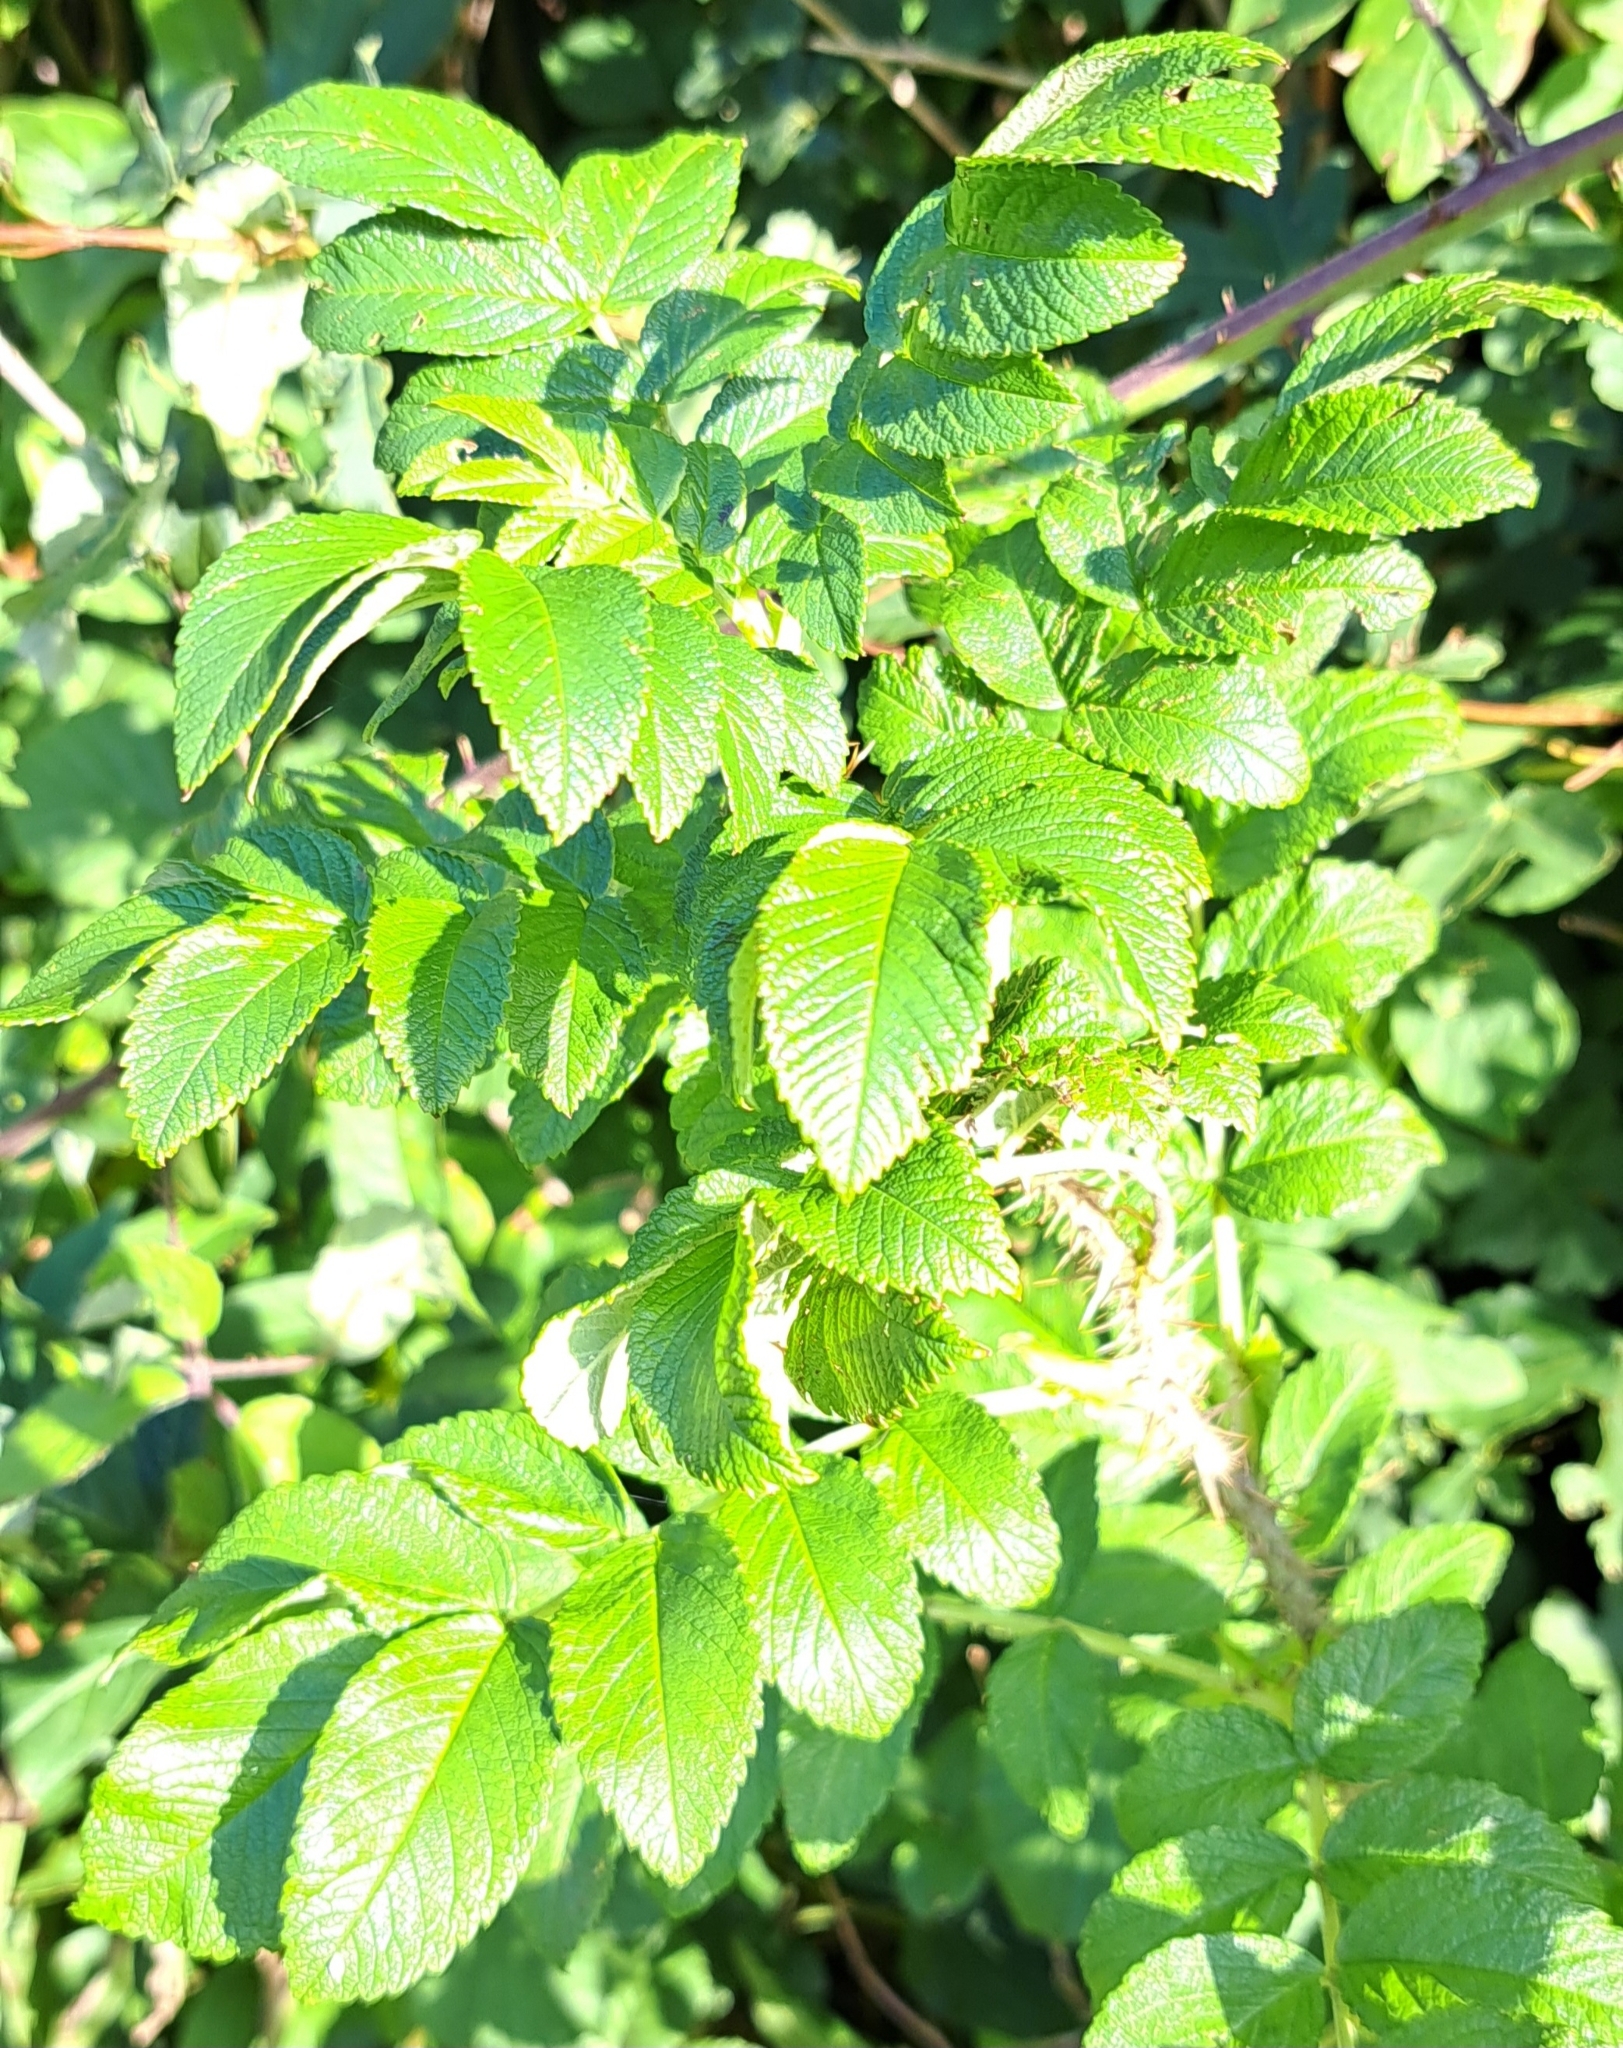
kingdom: Plantae
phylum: Tracheophyta
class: Magnoliopsida
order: Rosales
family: Rosaceae
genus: Rosa
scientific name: Rosa rugosa
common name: Japanese rose
